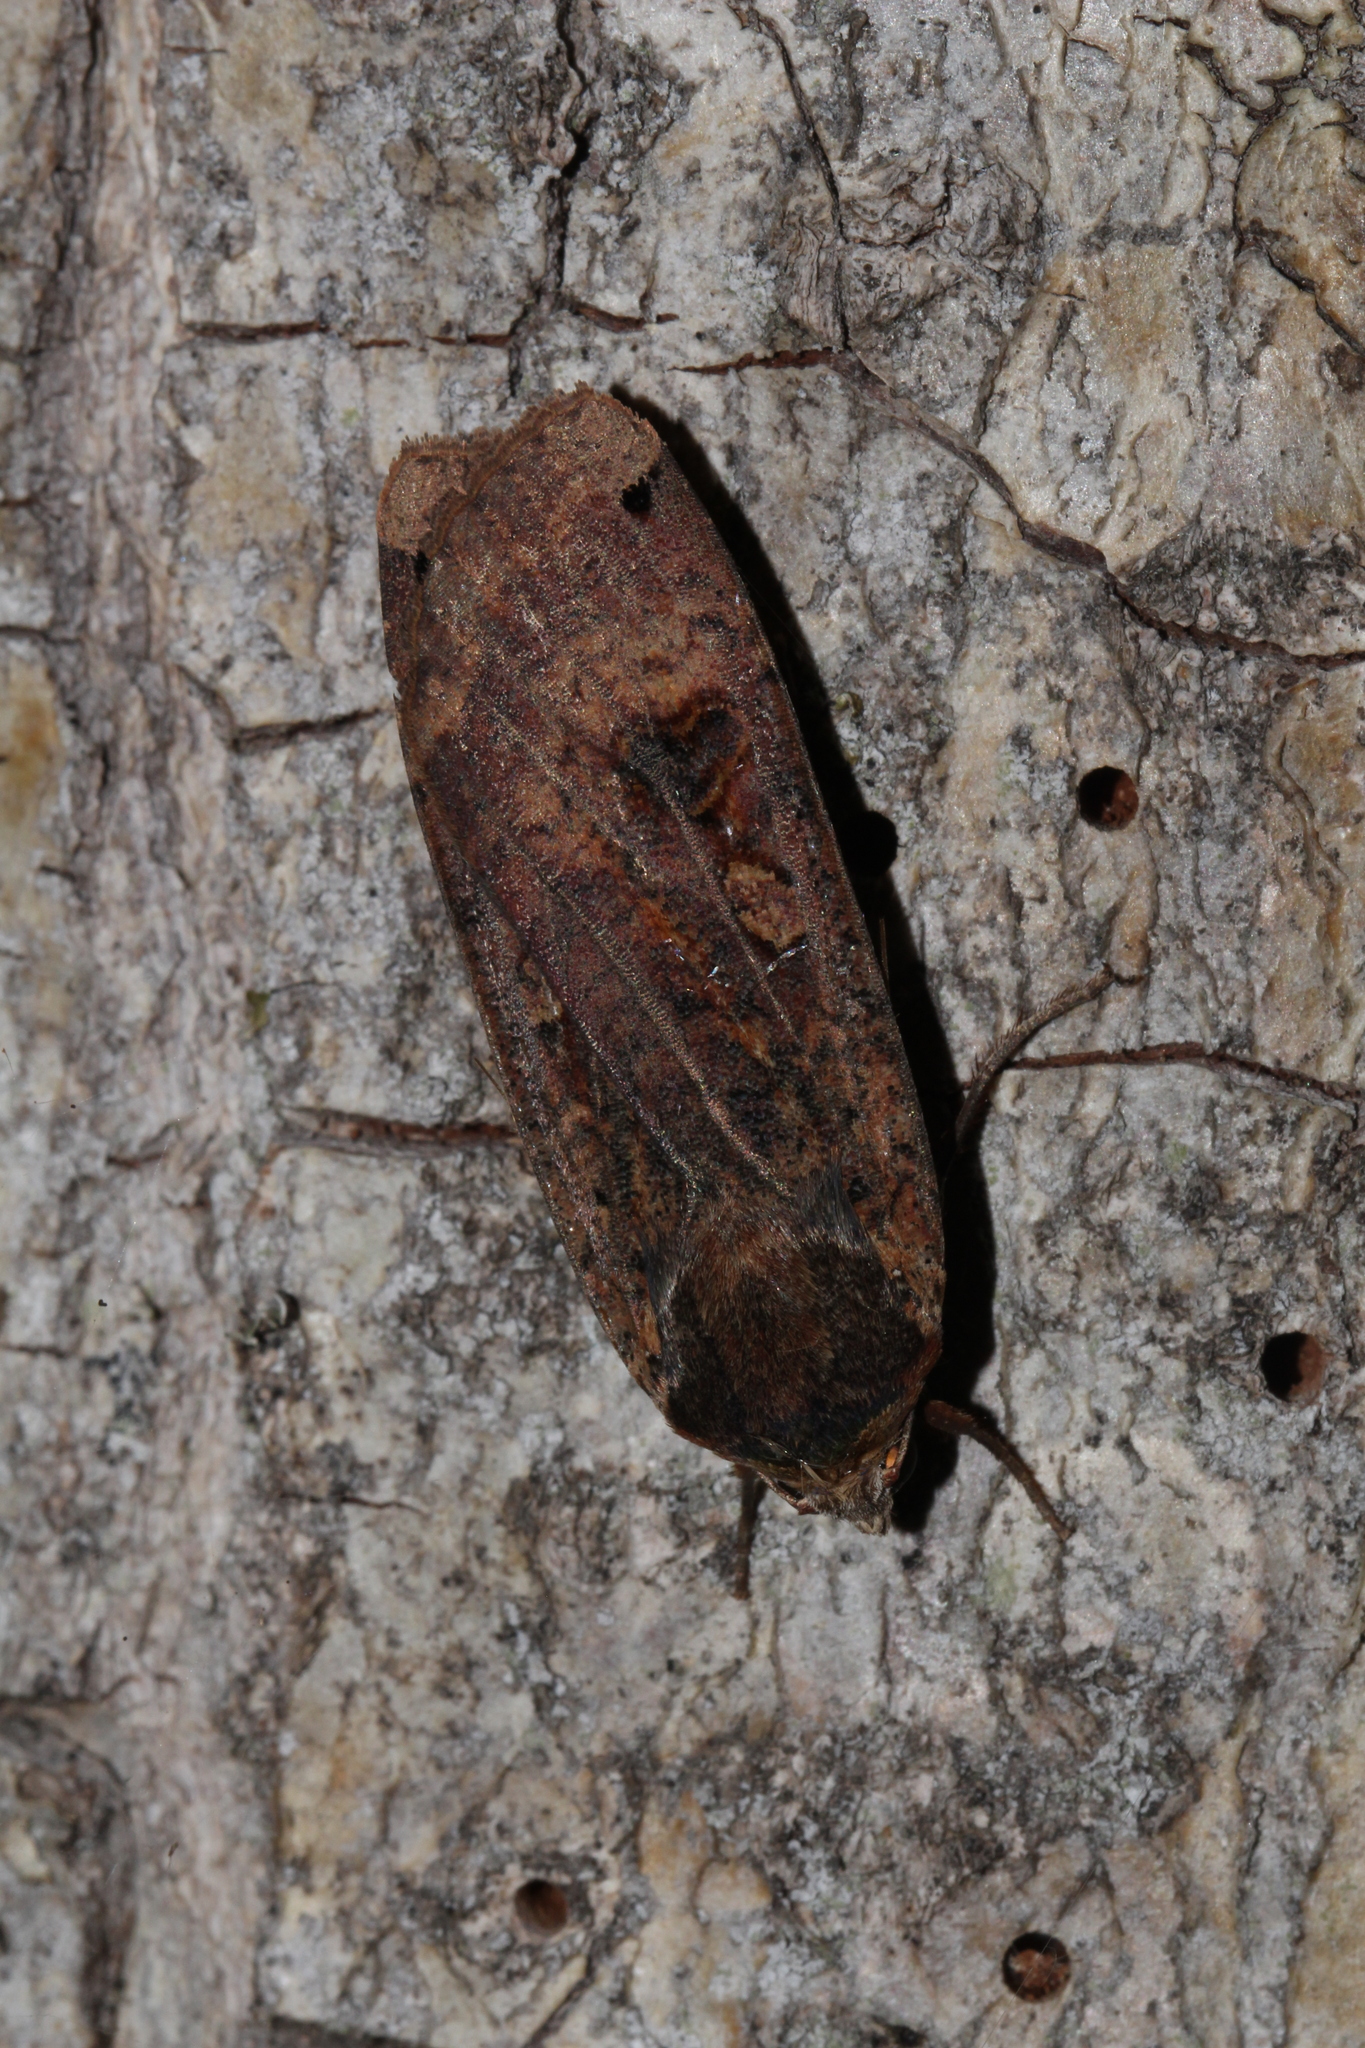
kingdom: Animalia
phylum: Arthropoda
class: Insecta
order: Lepidoptera
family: Noctuidae
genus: Noctua
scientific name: Noctua pronuba
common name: Large yellow underwing
